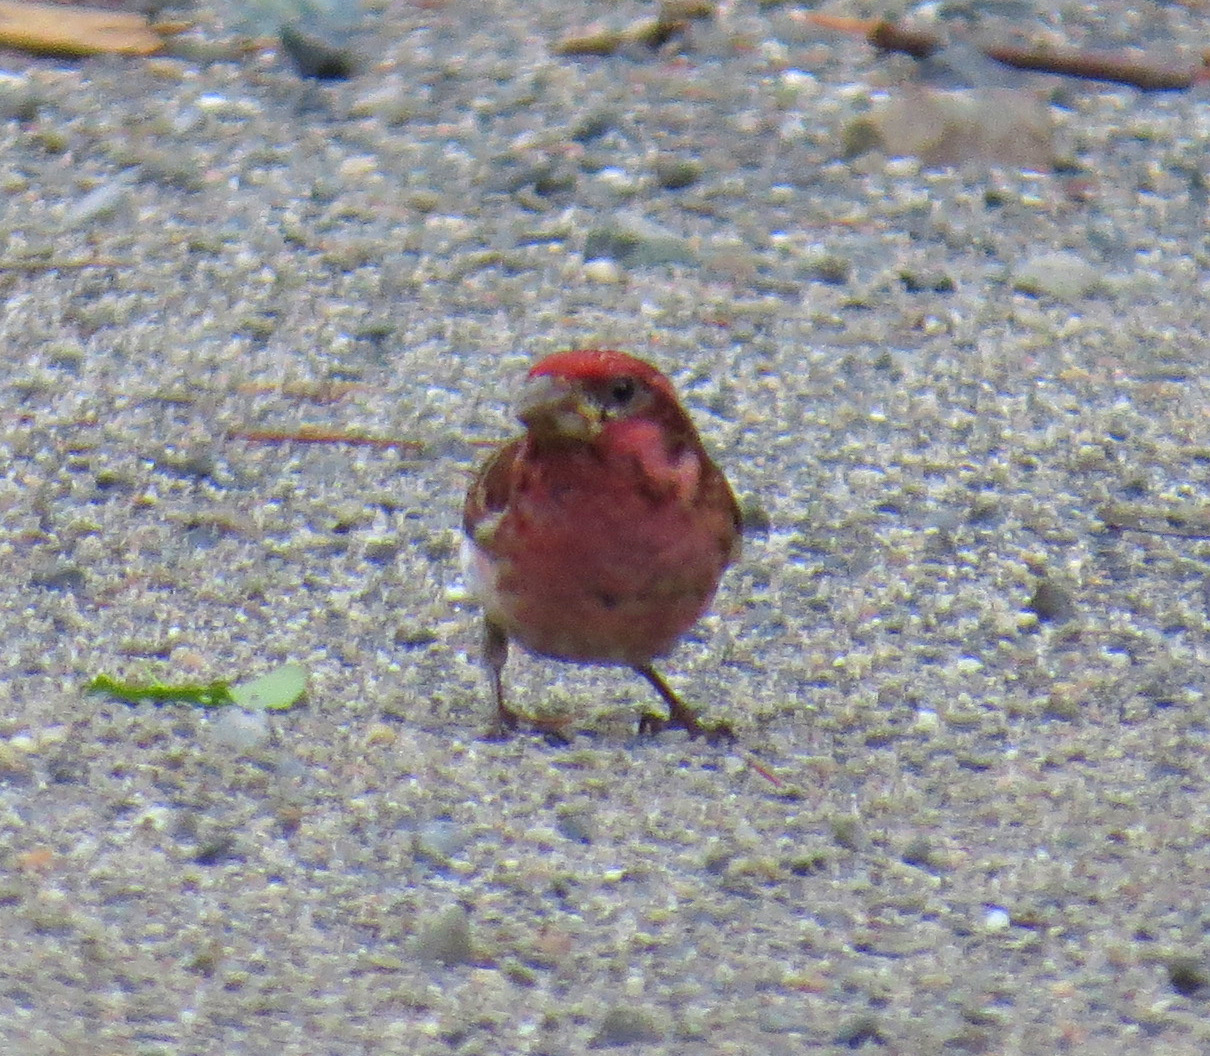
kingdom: Animalia
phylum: Chordata
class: Aves
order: Passeriformes
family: Fringillidae
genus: Haemorhous
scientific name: Haemorhous purpureus
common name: Purple finch
